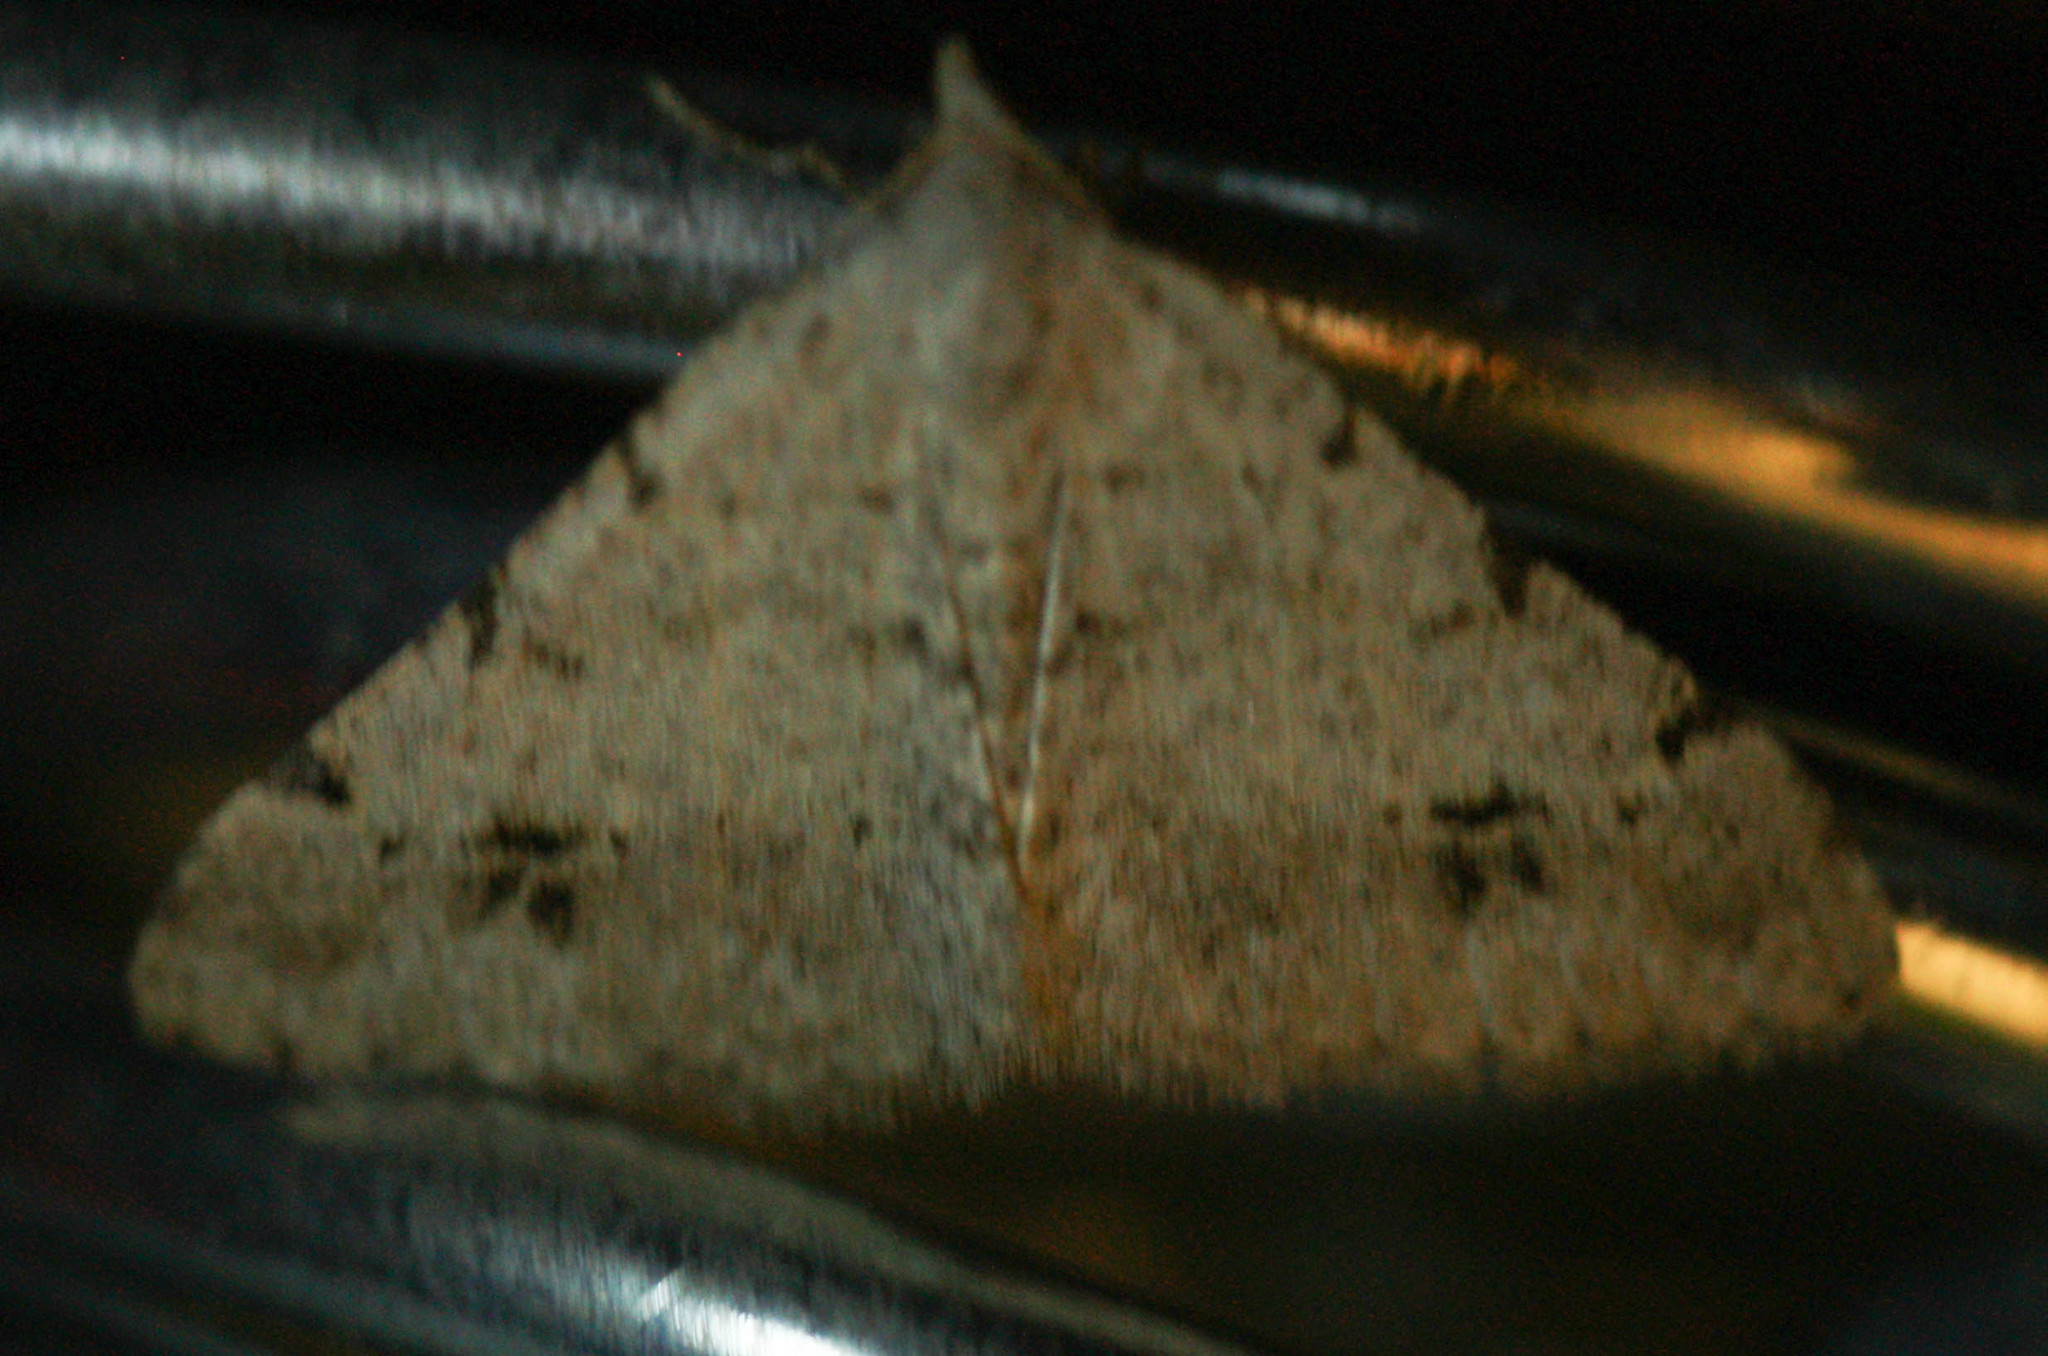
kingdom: Animalia
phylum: Arthropoda
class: Insecta
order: Lepidoptera
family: Geometridae
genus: Macaria
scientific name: Macaria signaria
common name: Dusky peacock
